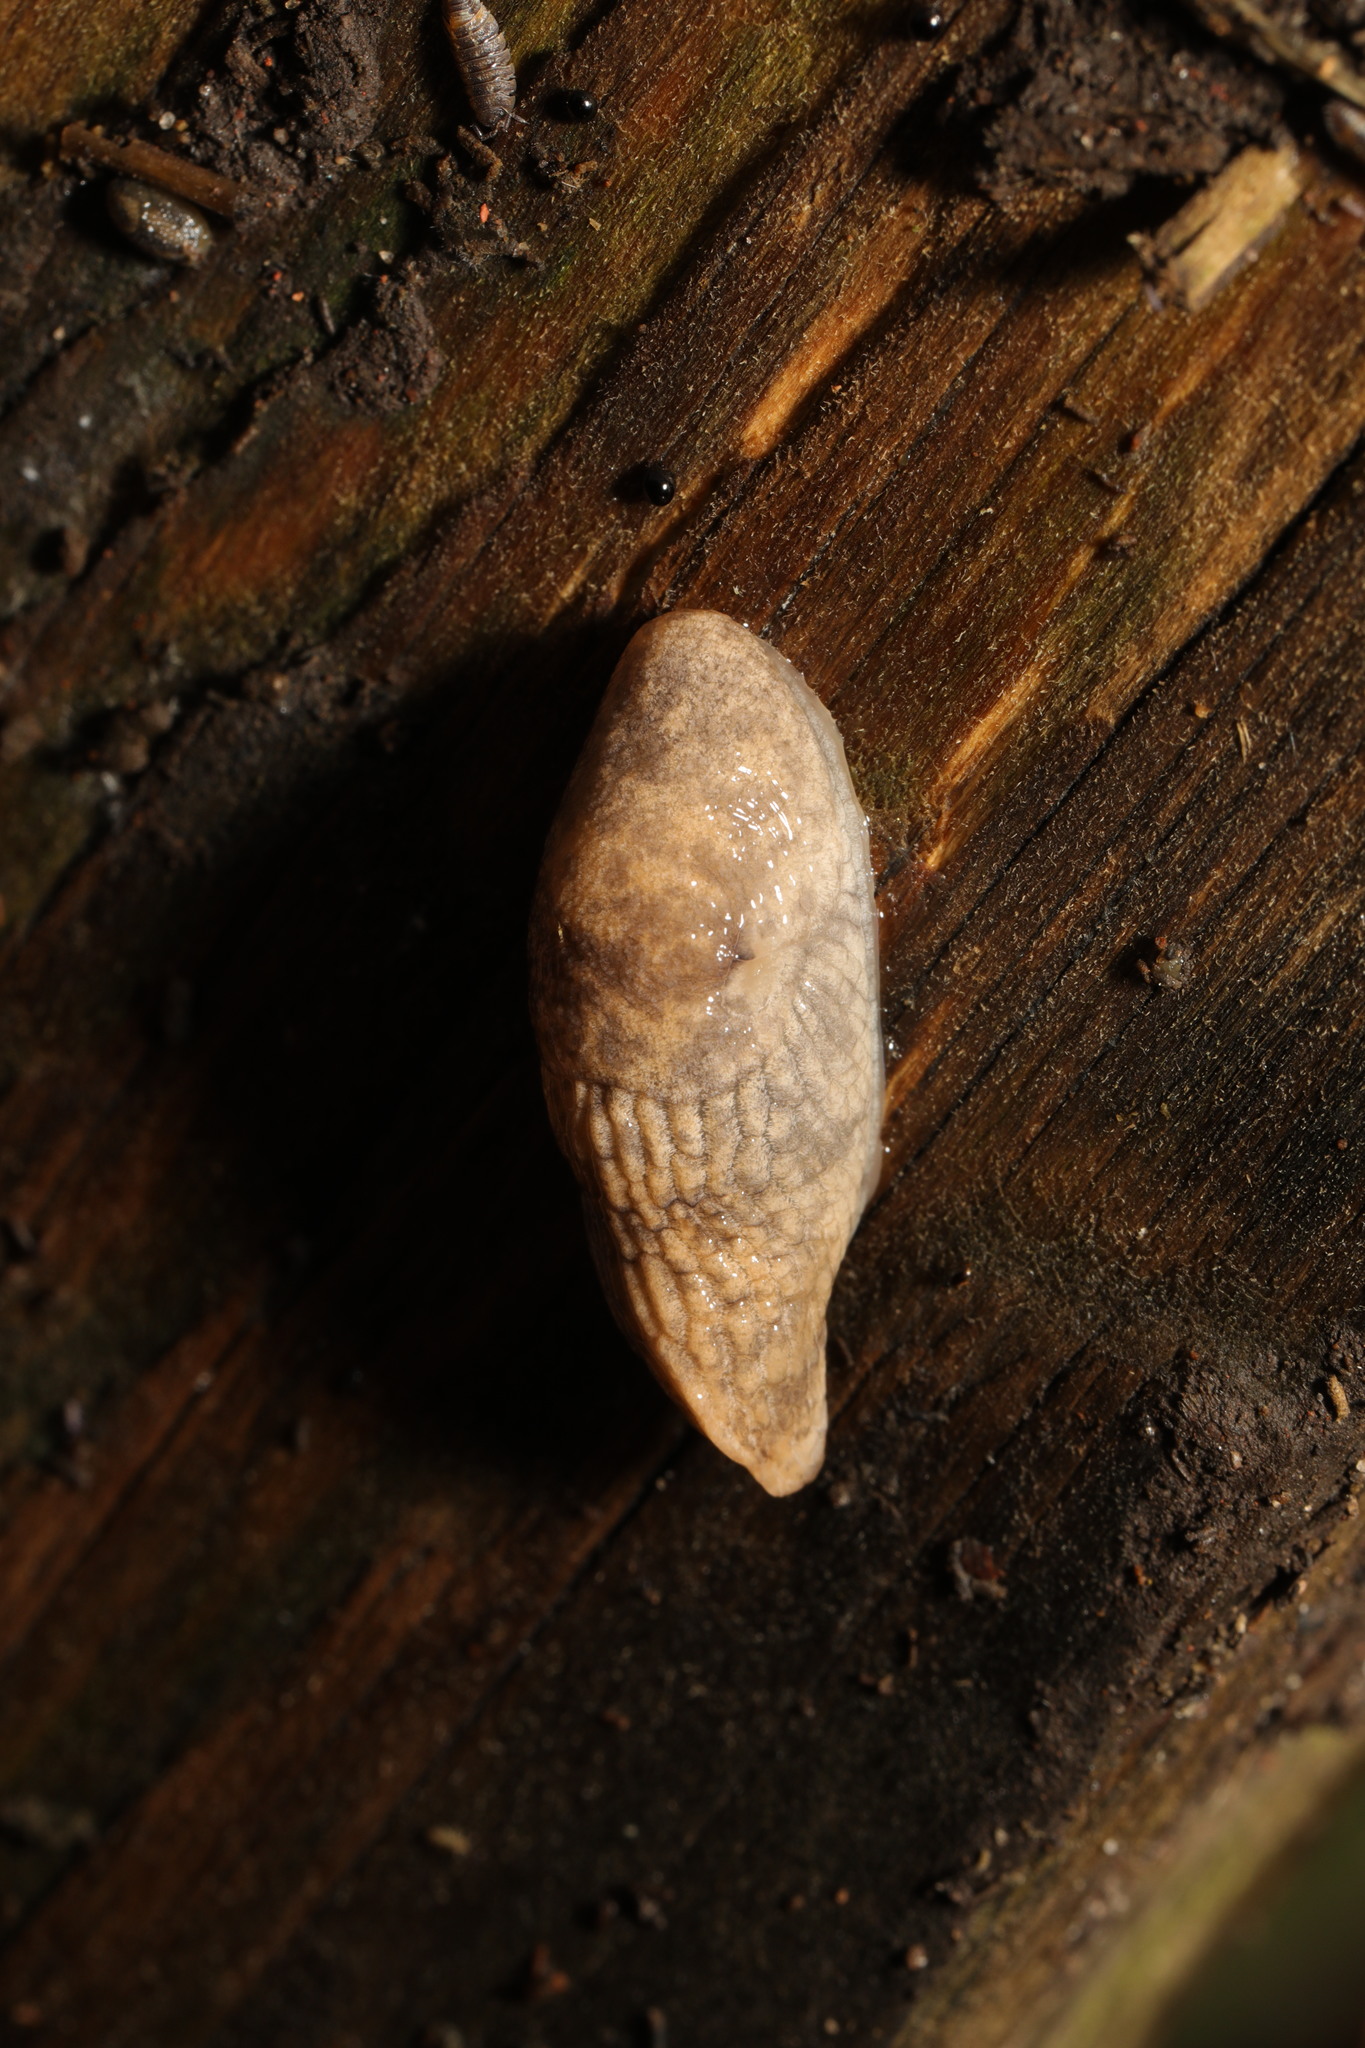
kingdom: Animalia
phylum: Mollusca
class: Gastropoda
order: Stylommatophora
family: Agriolimacidae
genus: Deroceras
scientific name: Deroceras reticulatum
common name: Gray field slug
